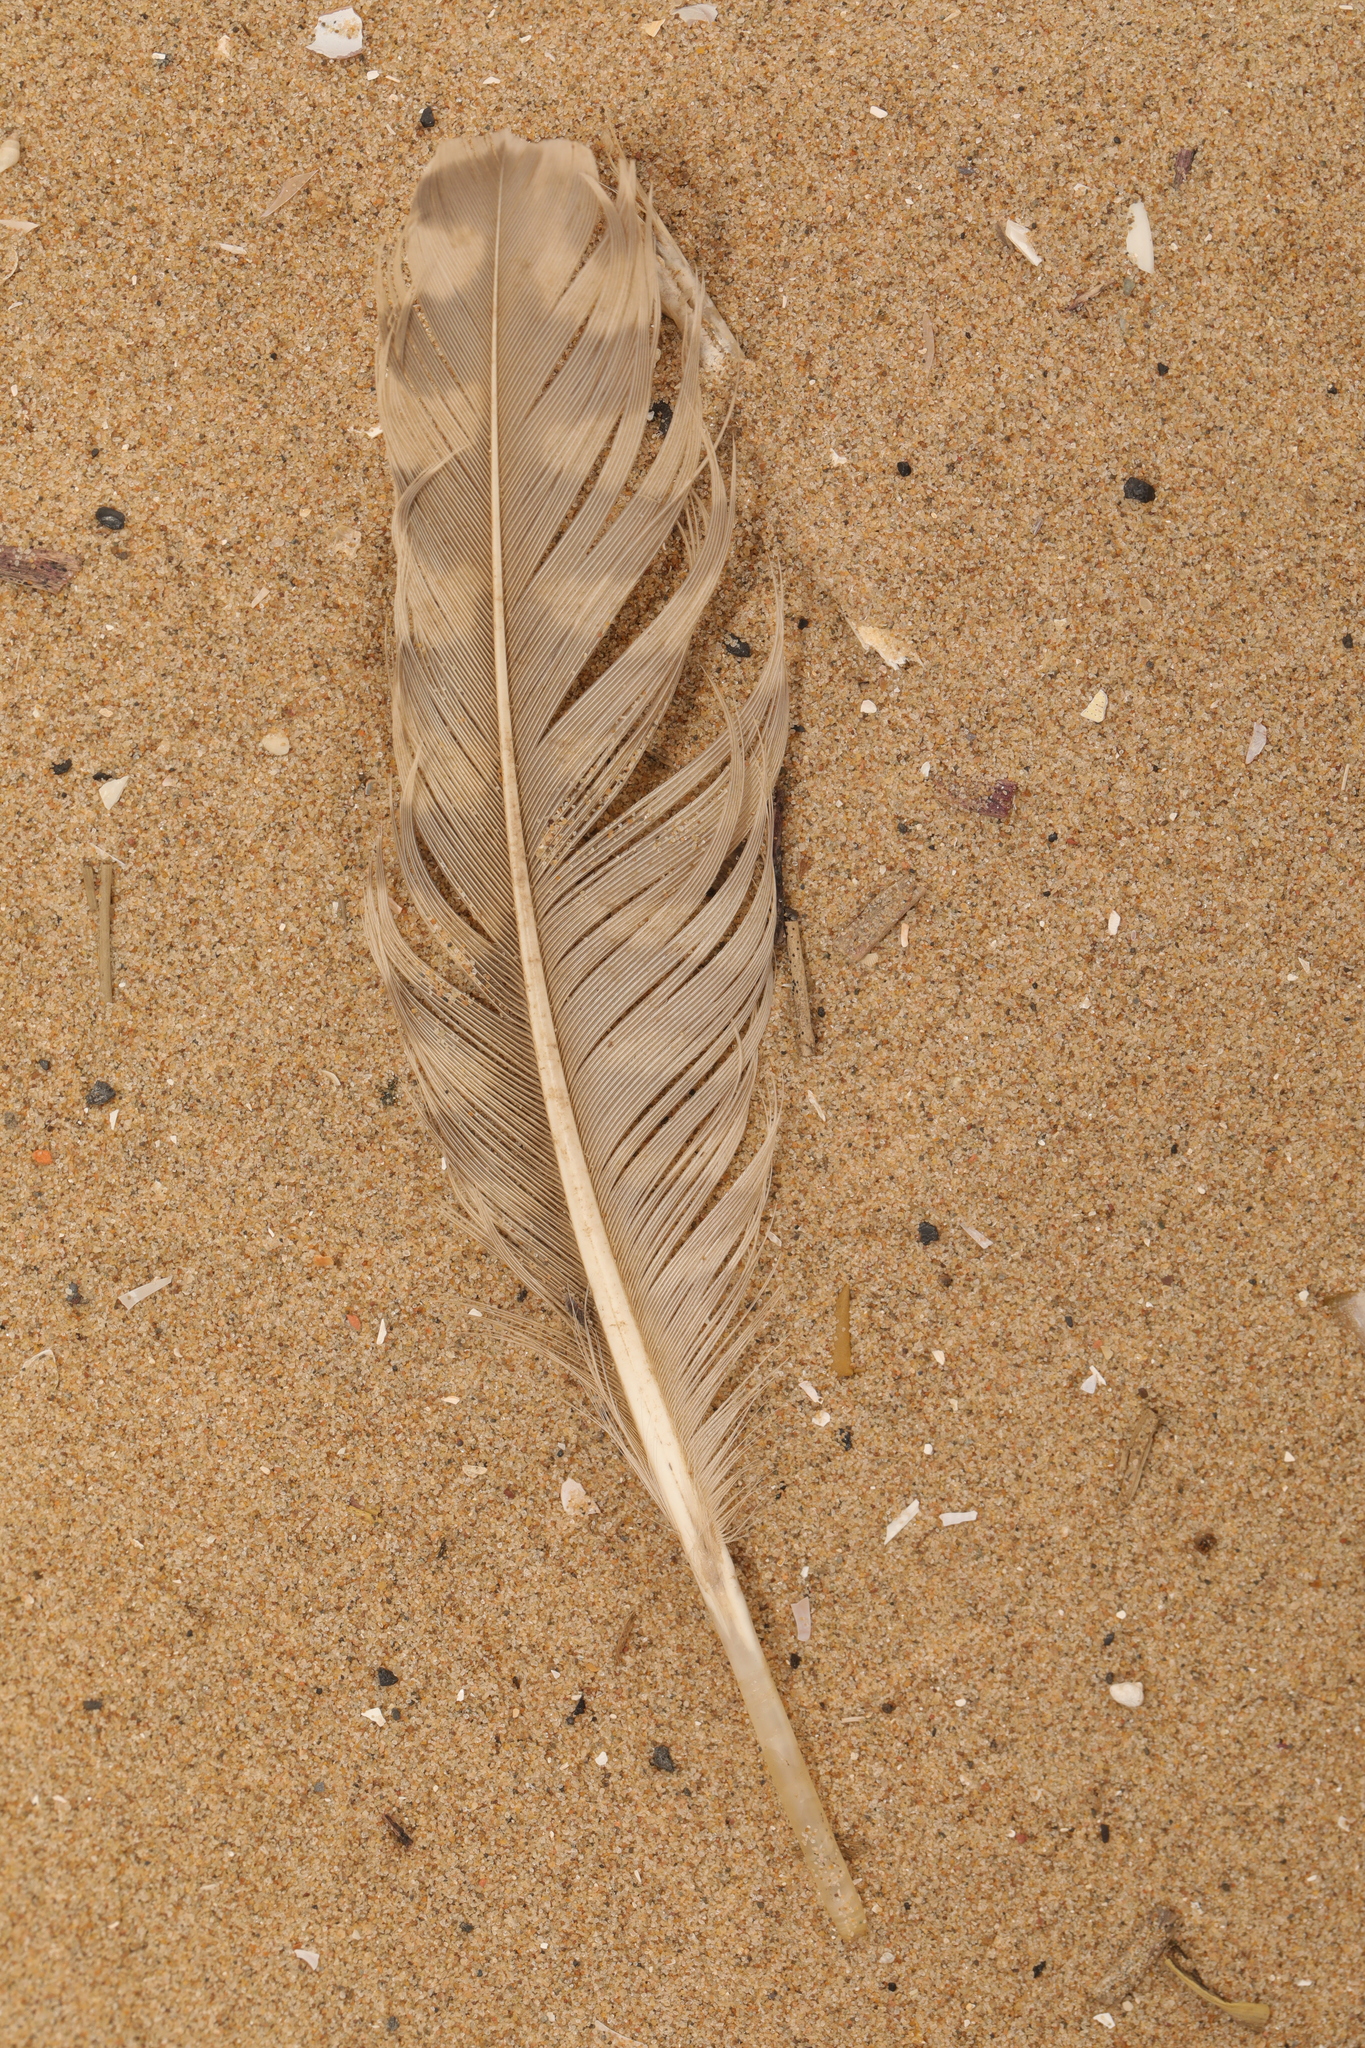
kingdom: Animalia
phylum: Chordata
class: Aves
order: Charadriiformes
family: Scolopacidae
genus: Numenius
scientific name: Numenius arquata
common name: Eurasian curlew
